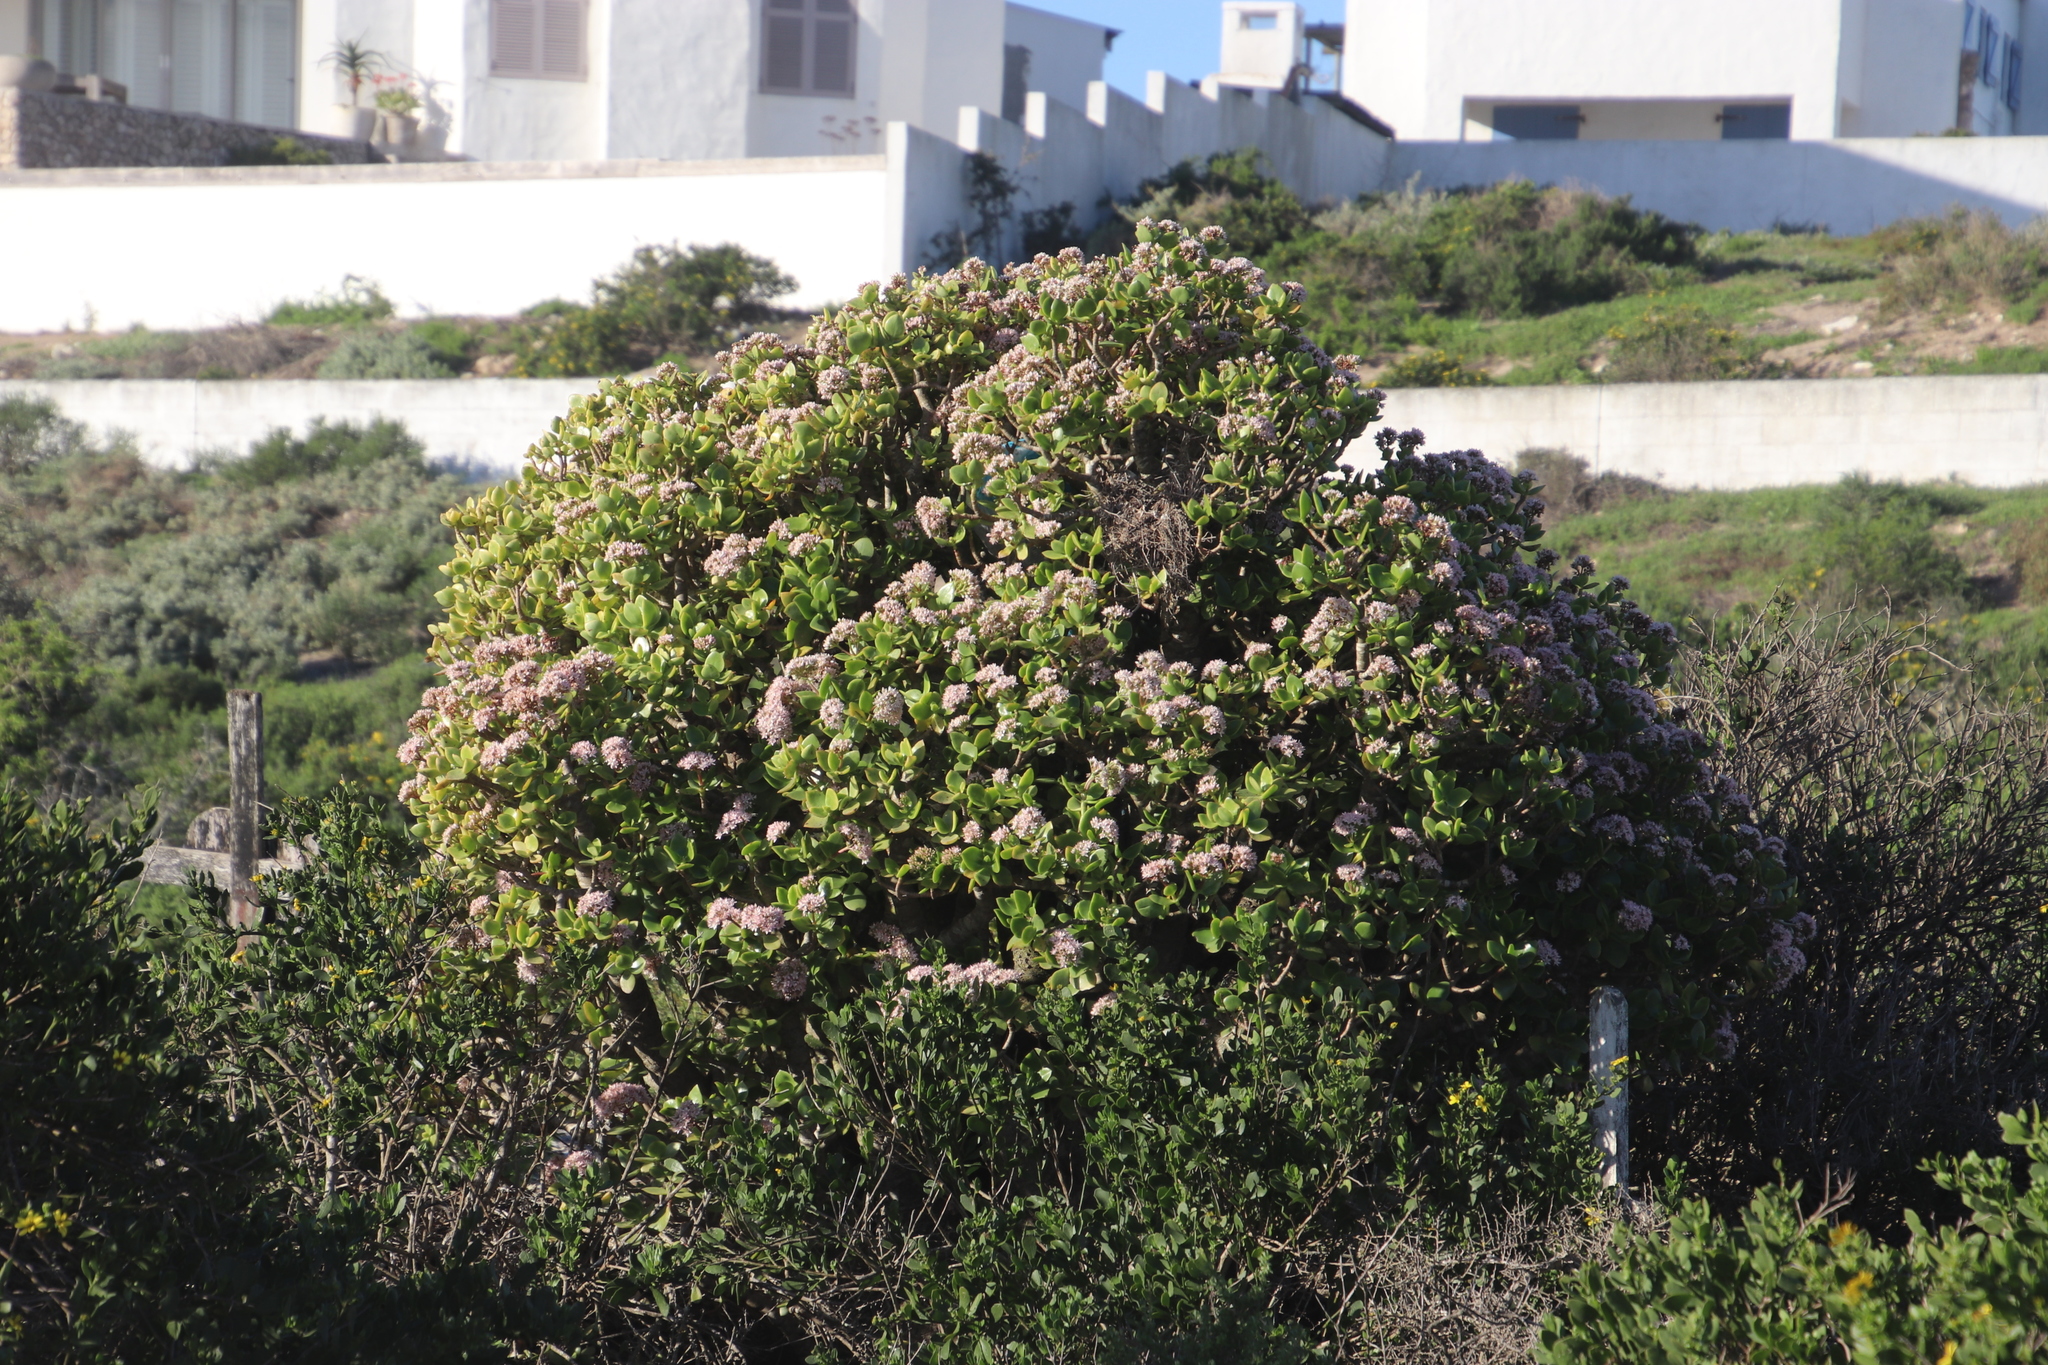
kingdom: Plantae
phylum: Tracheophyta
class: Magnoliopsida
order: Saxifragales
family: Crassulaceae
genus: Aeonium
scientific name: Aeonium arboreum
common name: Tree aeonium
